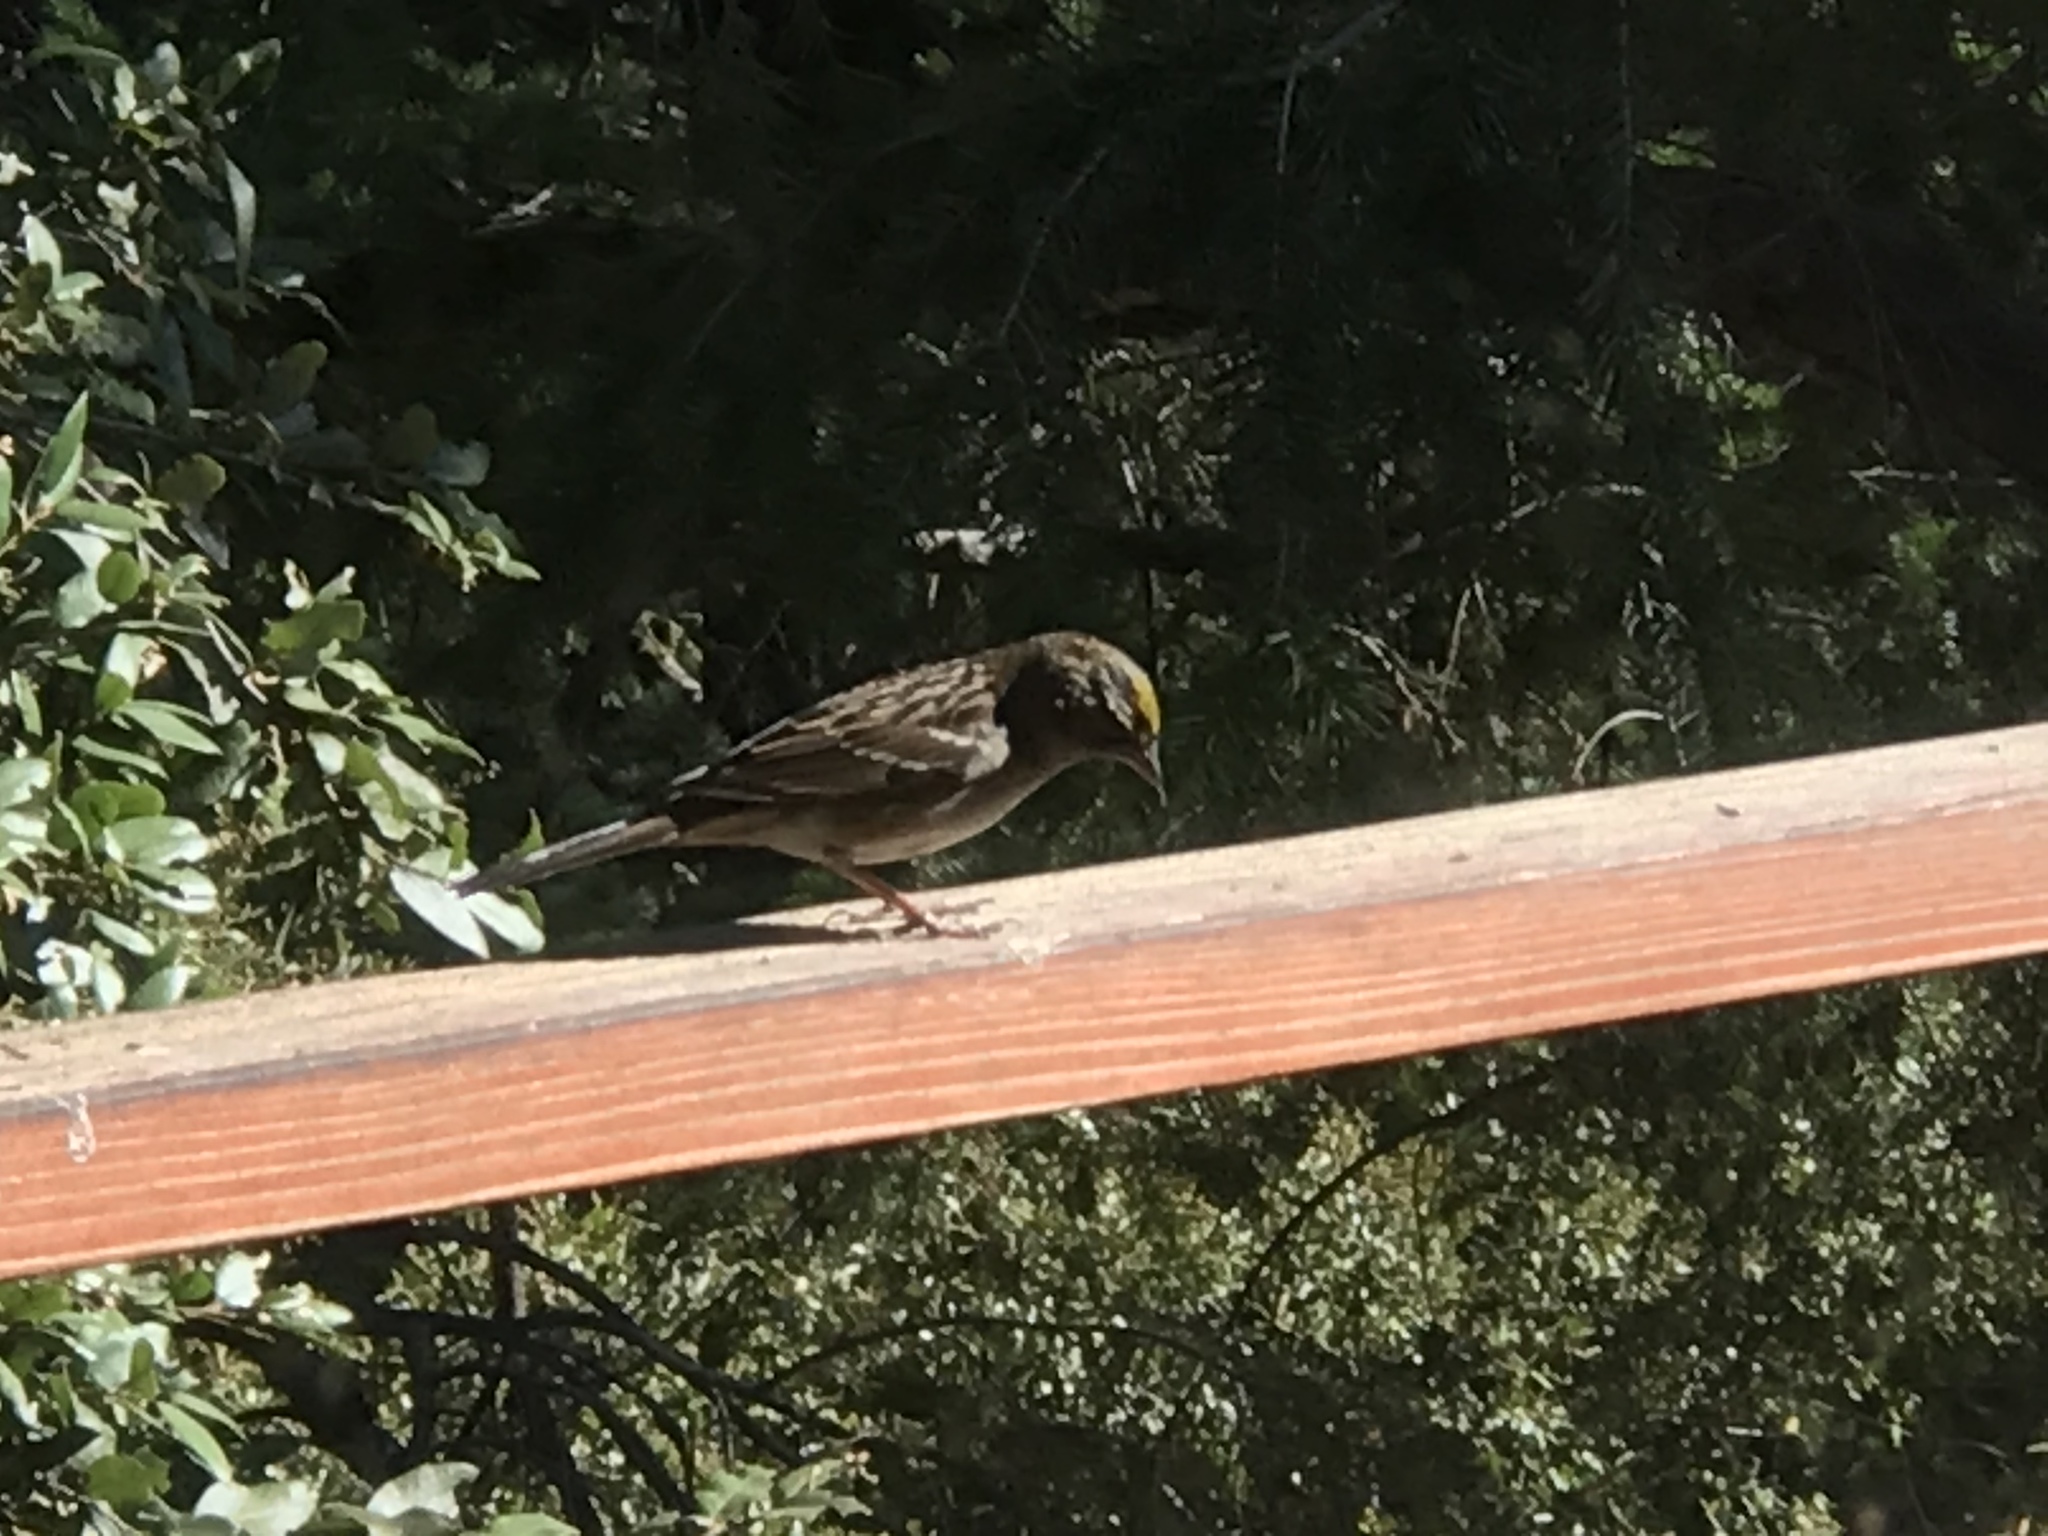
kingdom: Animalia
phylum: Chordata
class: Aves
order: Passeriformes
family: Passerellidae
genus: Zonotrichia
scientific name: Zonotrichia atricapilla
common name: Golden-crowned sparrow
